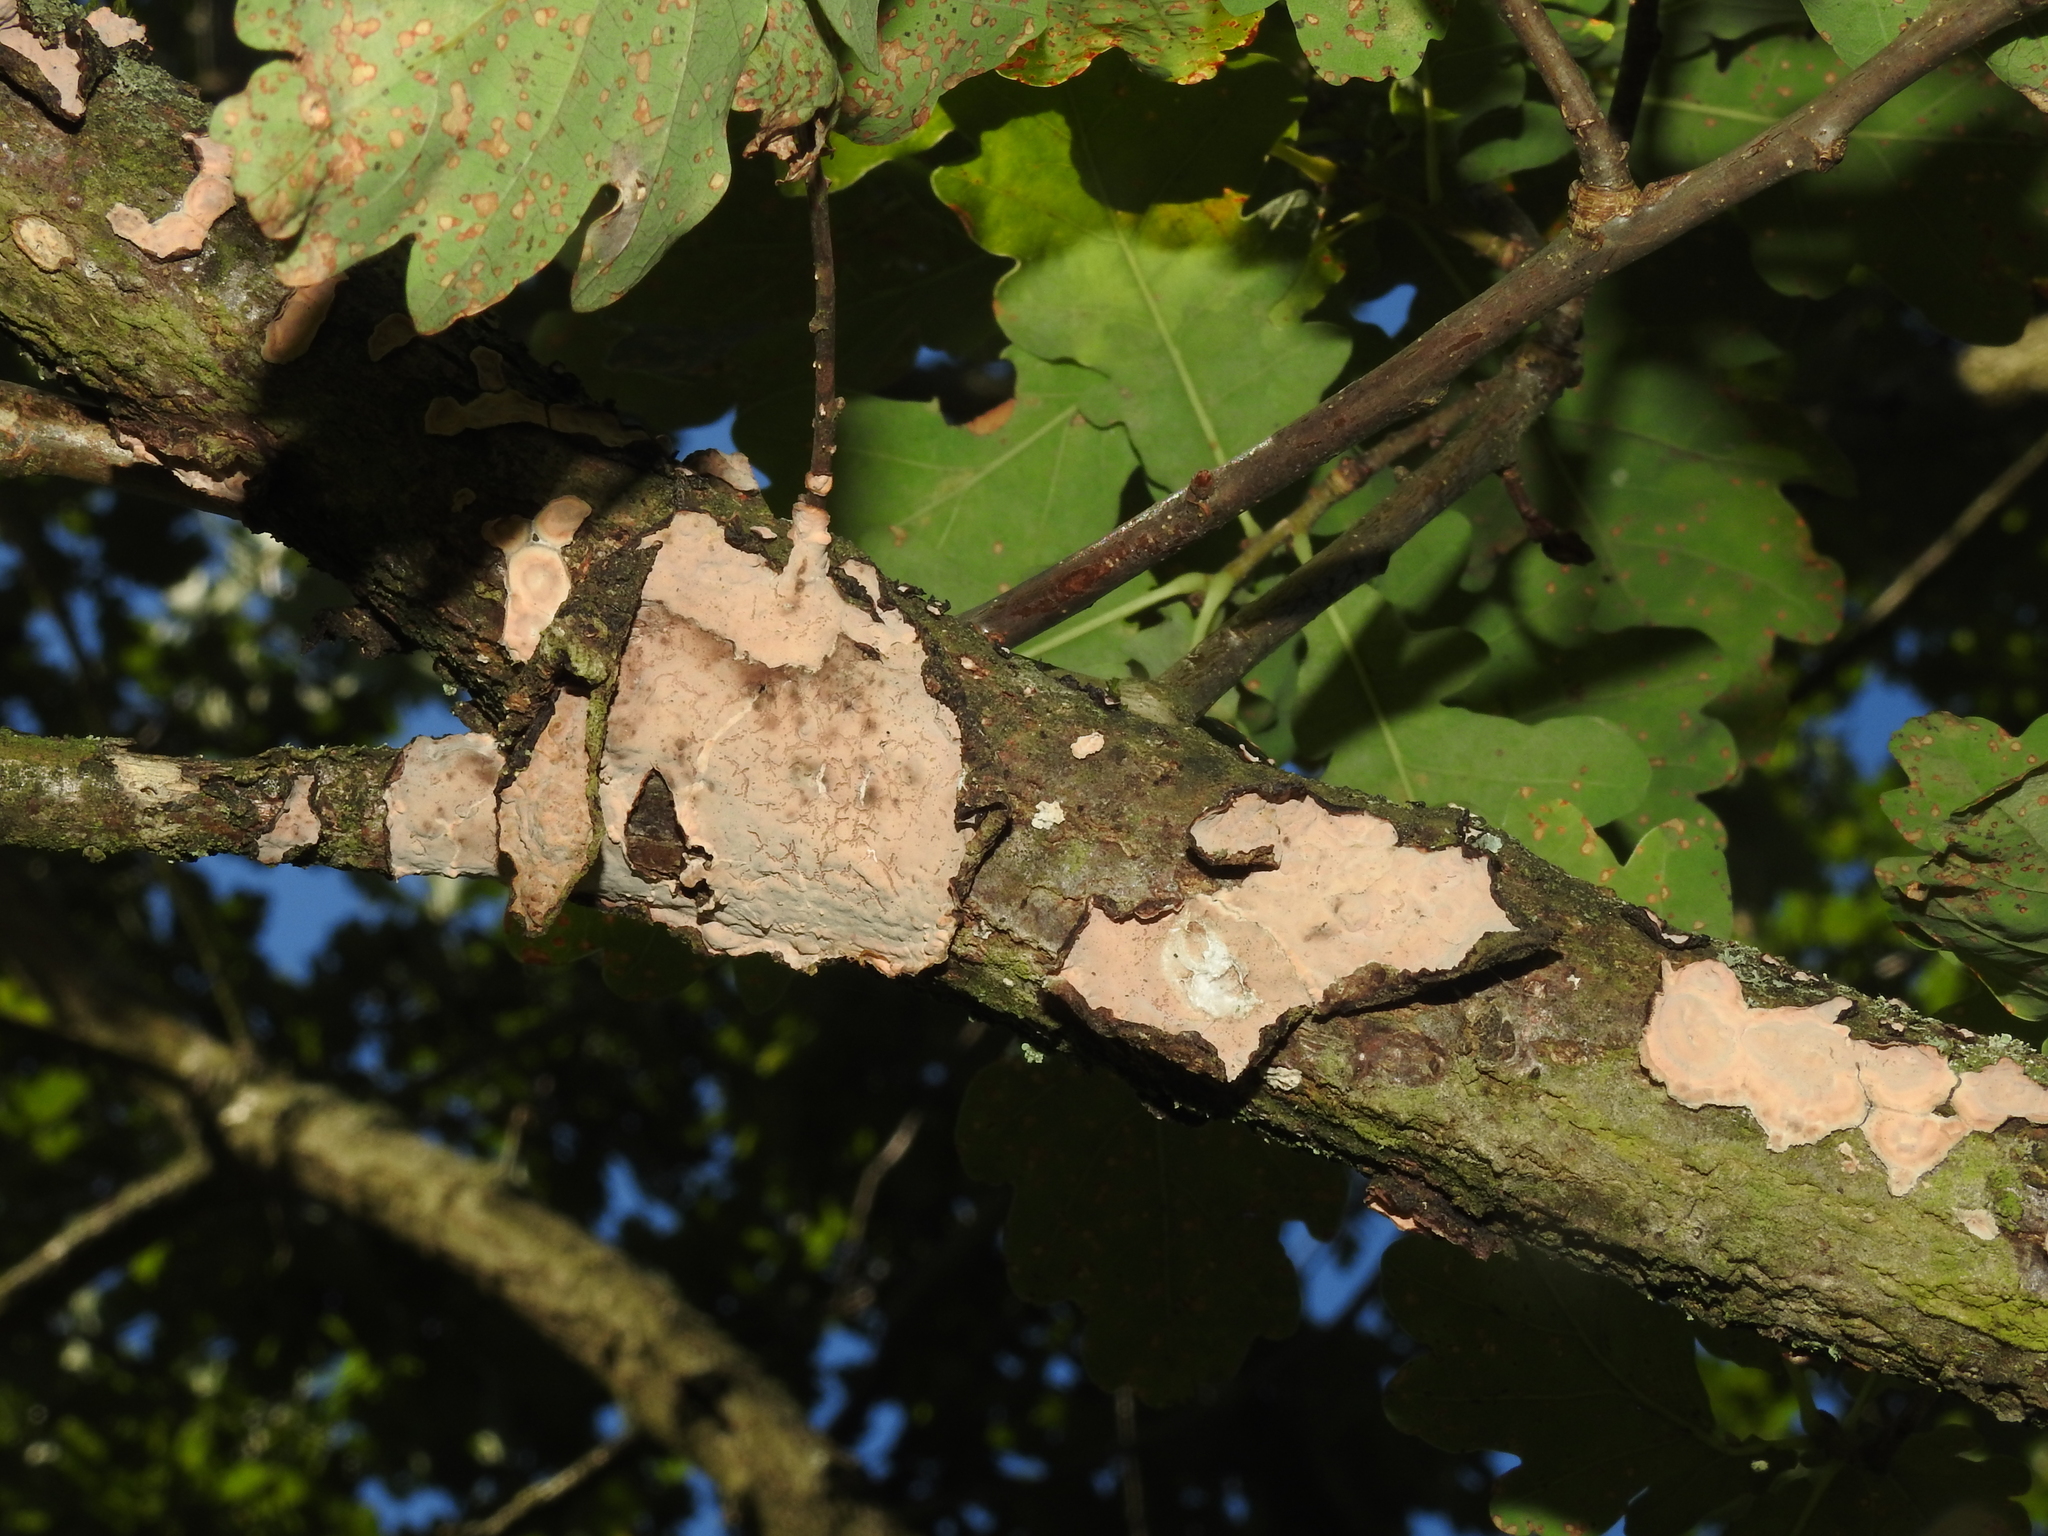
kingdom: Fungi
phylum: Basidiomycota
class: Agaricomycetes
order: Russulales
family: Peniophoraceae
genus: Peniophora
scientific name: Peniophora quercina
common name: Oak crust
